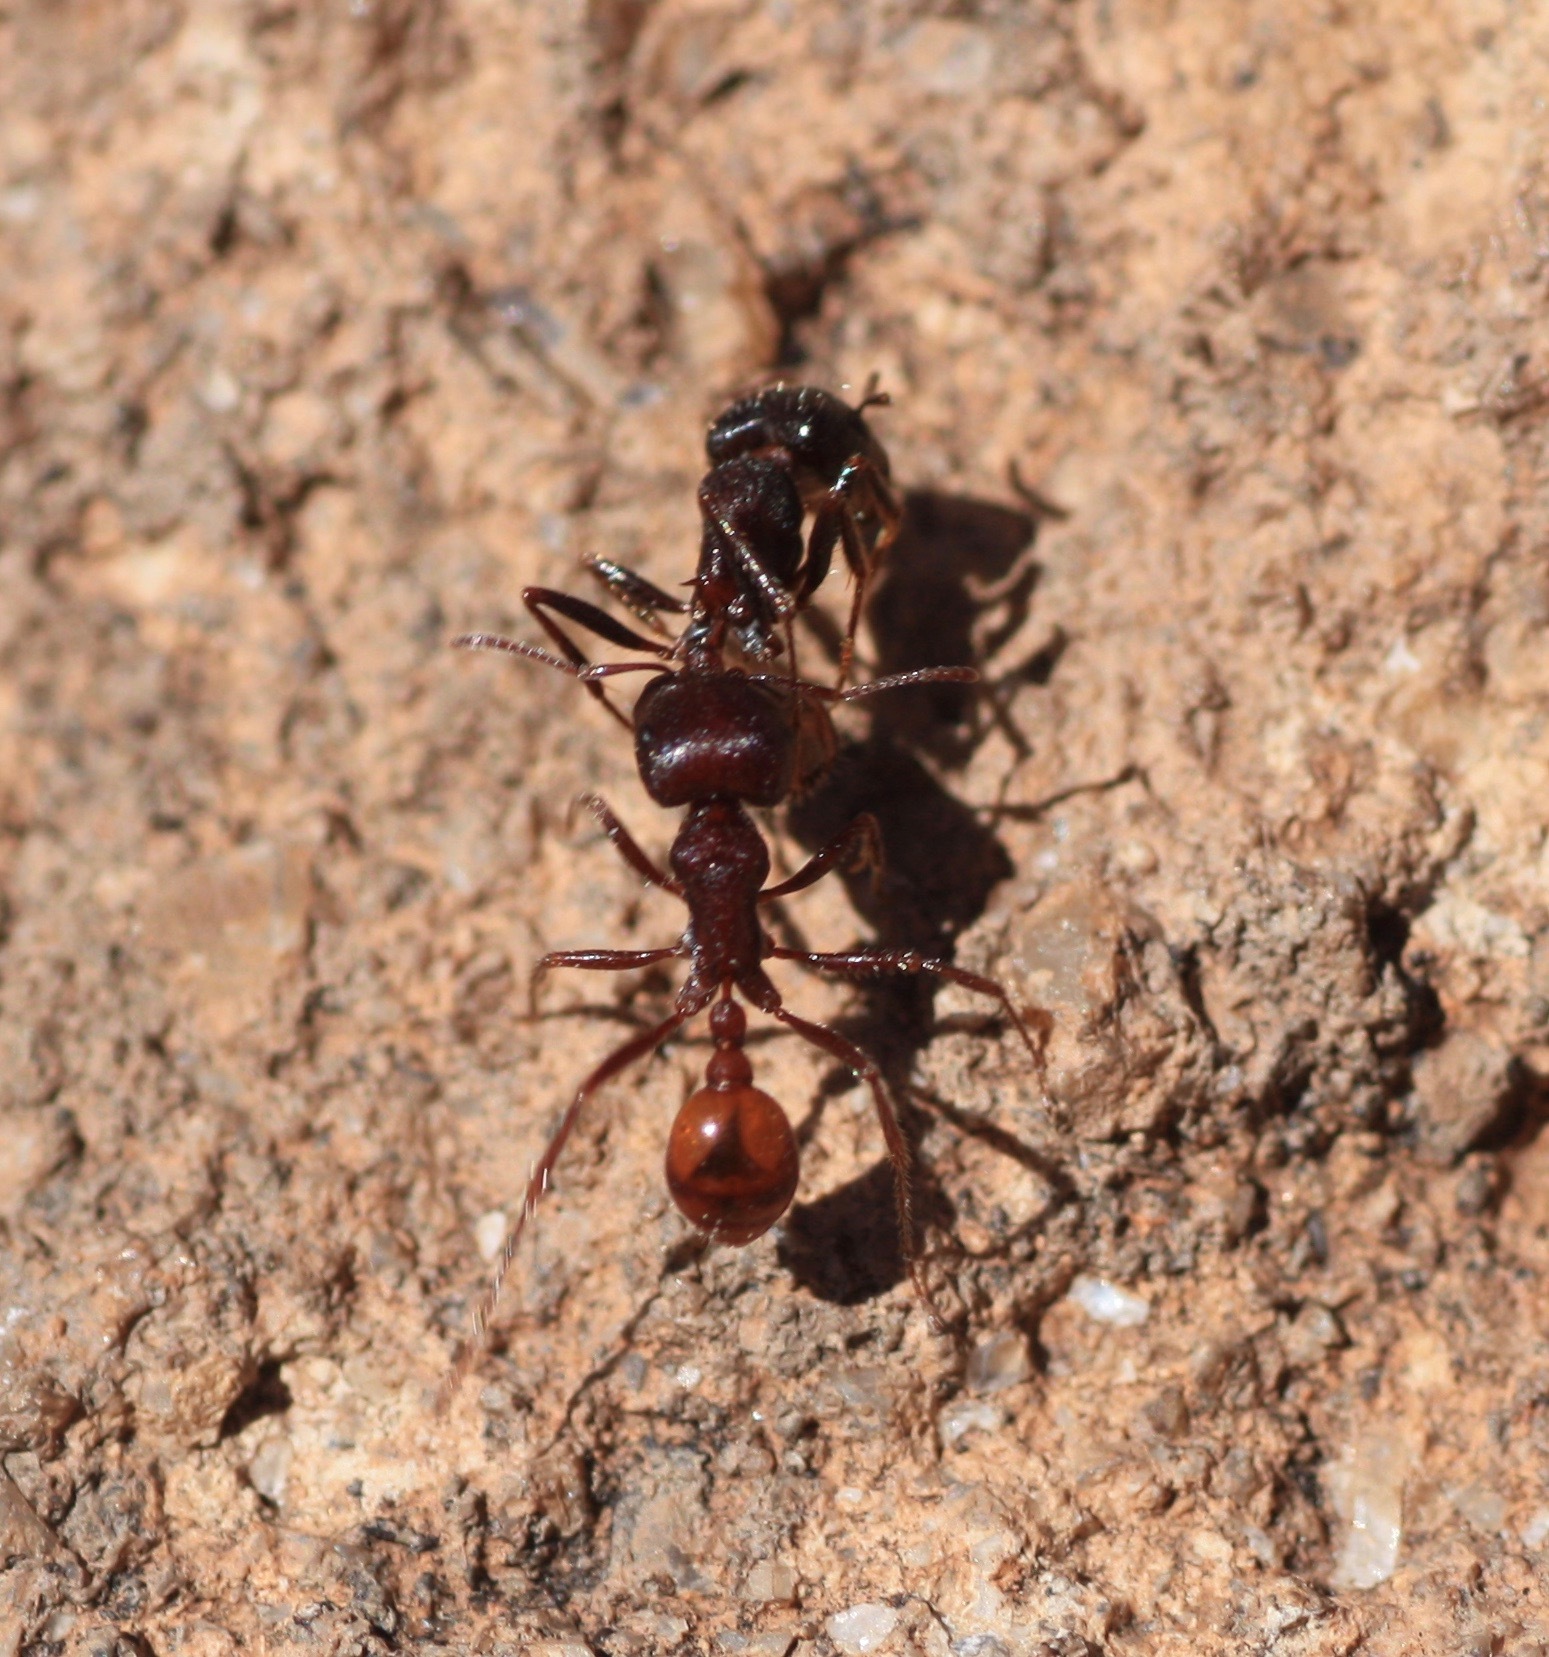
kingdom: Animalia
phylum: Arthropoda
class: Insecta
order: Hymenoptera
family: Formicidae
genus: Pogonomyrmex
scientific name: Pogonomyrmex rugosus
